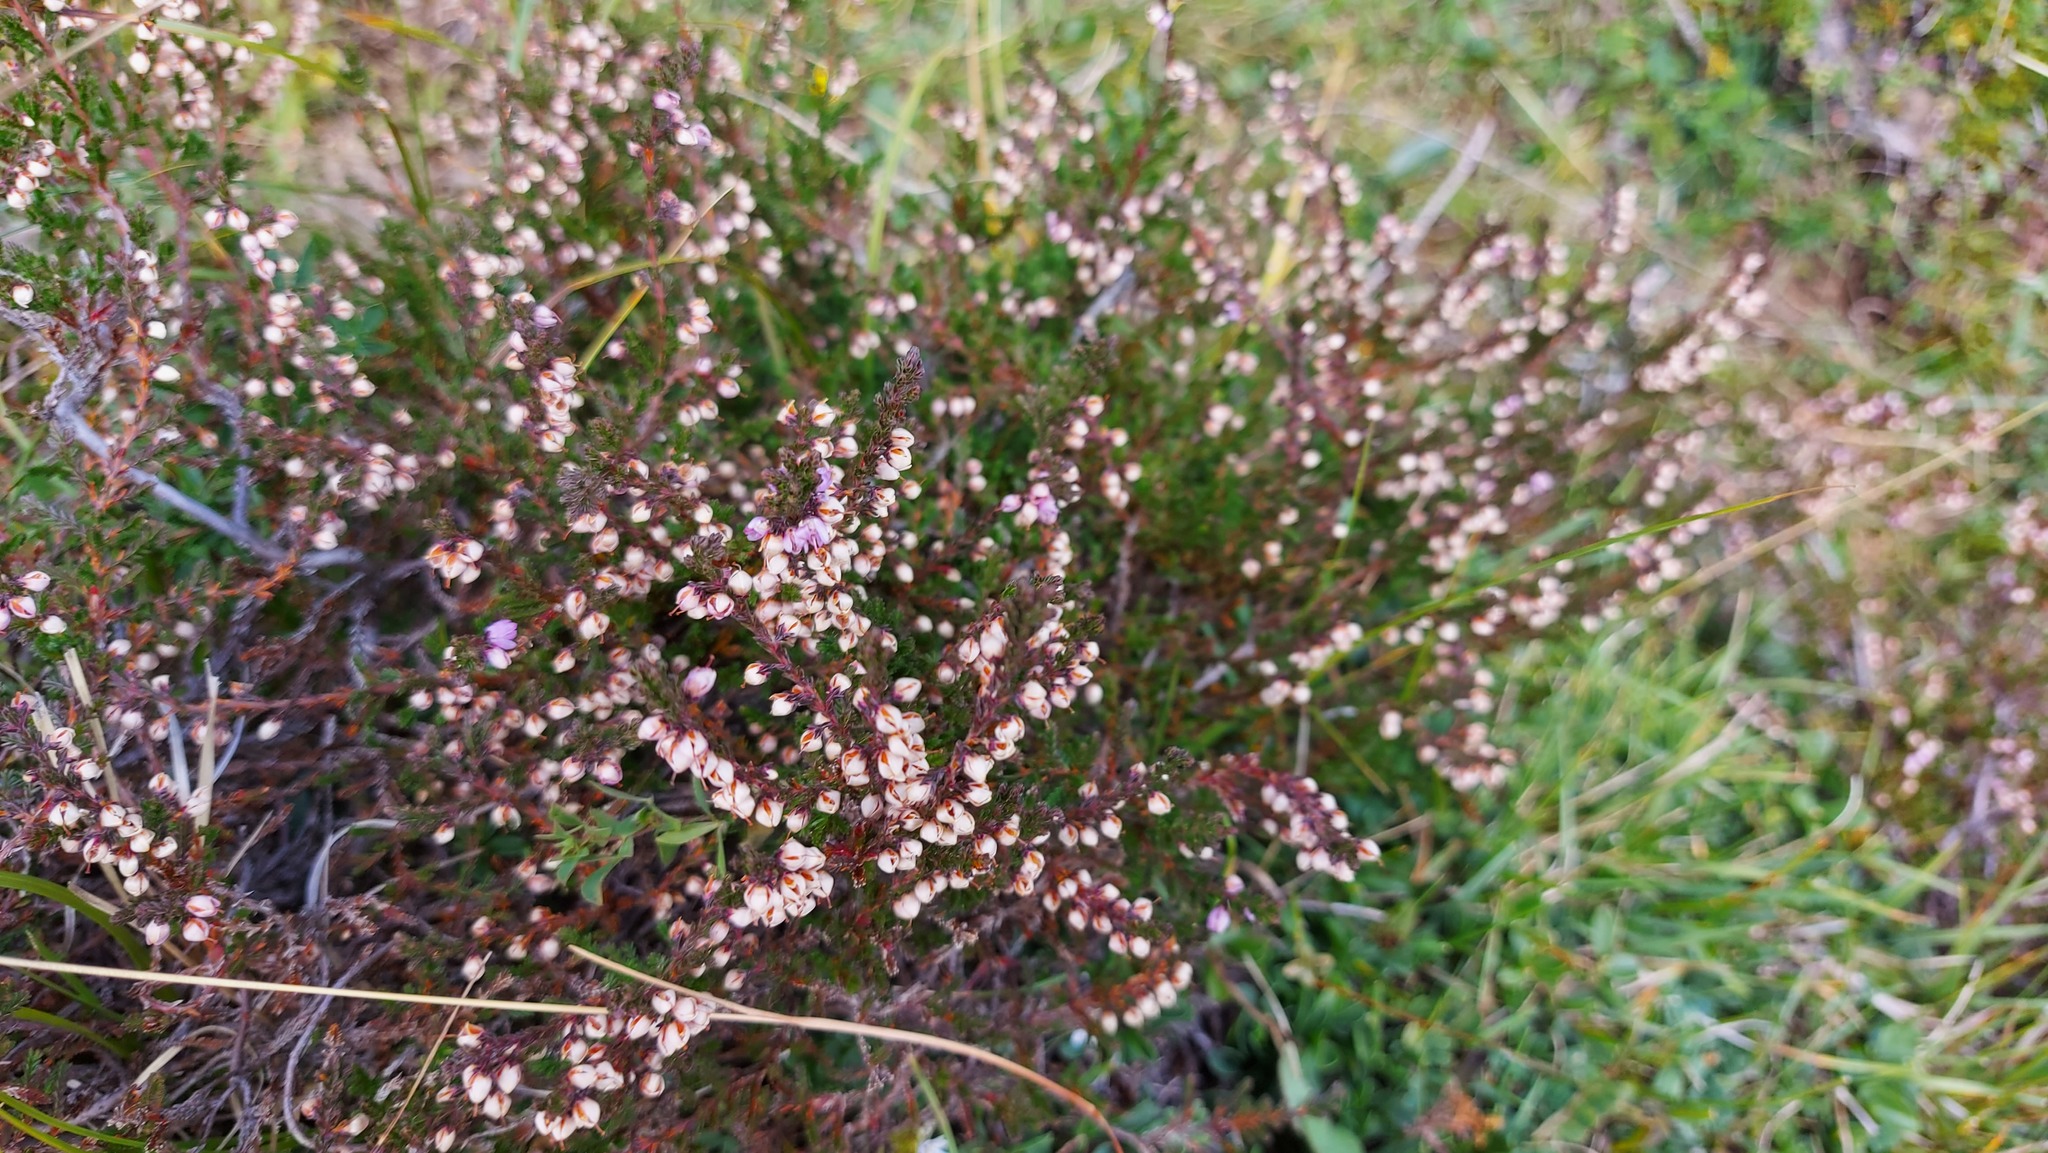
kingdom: Plantae
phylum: Tracheophyta
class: Magnoliopsida
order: Ericales
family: Ericaceae
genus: Calluna
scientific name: Calluna vulgaris
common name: Heather
